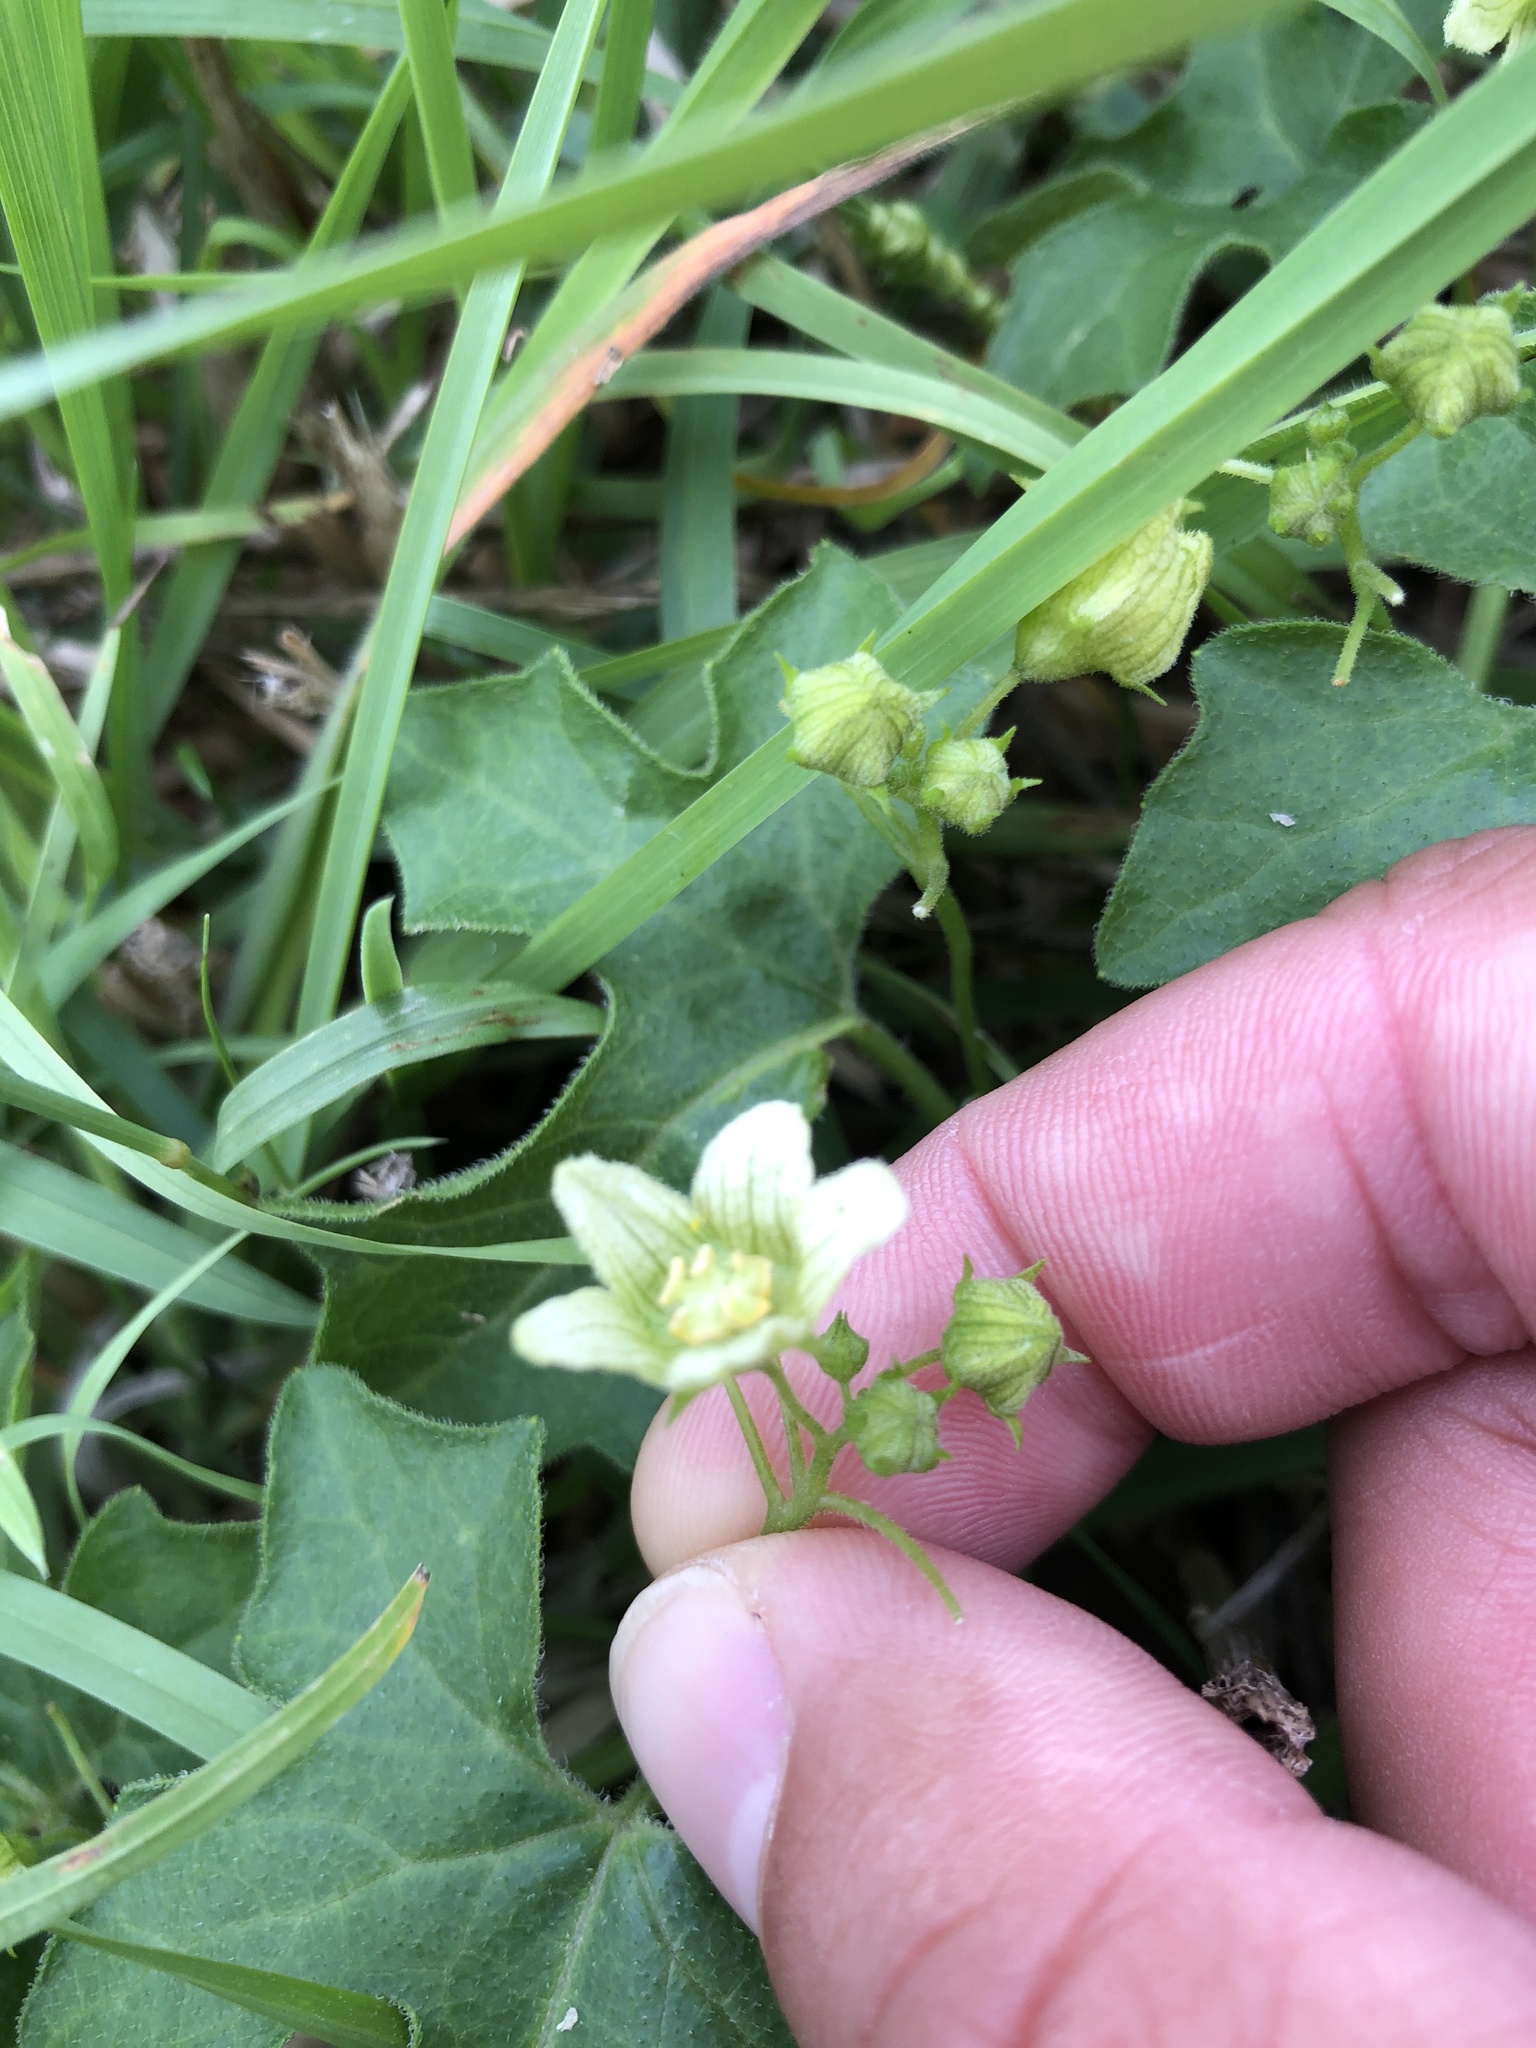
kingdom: Plantae
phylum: Tracheophyta
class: Magnoliopsida
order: Cucurbitales
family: Cucurbitaceae
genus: Bryonia
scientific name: Bryonia cretica
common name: Cretan bryony
